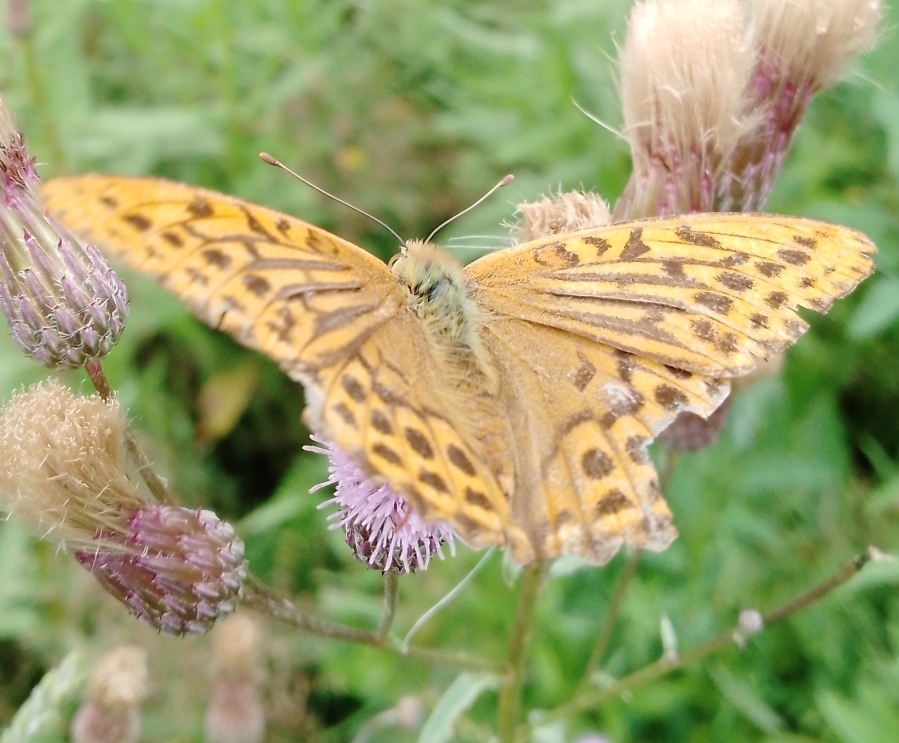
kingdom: Animalia
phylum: Arthropoda
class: Insecta
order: Lepidoptera
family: Nymphalidae
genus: Argynnis
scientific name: Argynnis paphia
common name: Silver-washed fritillary
